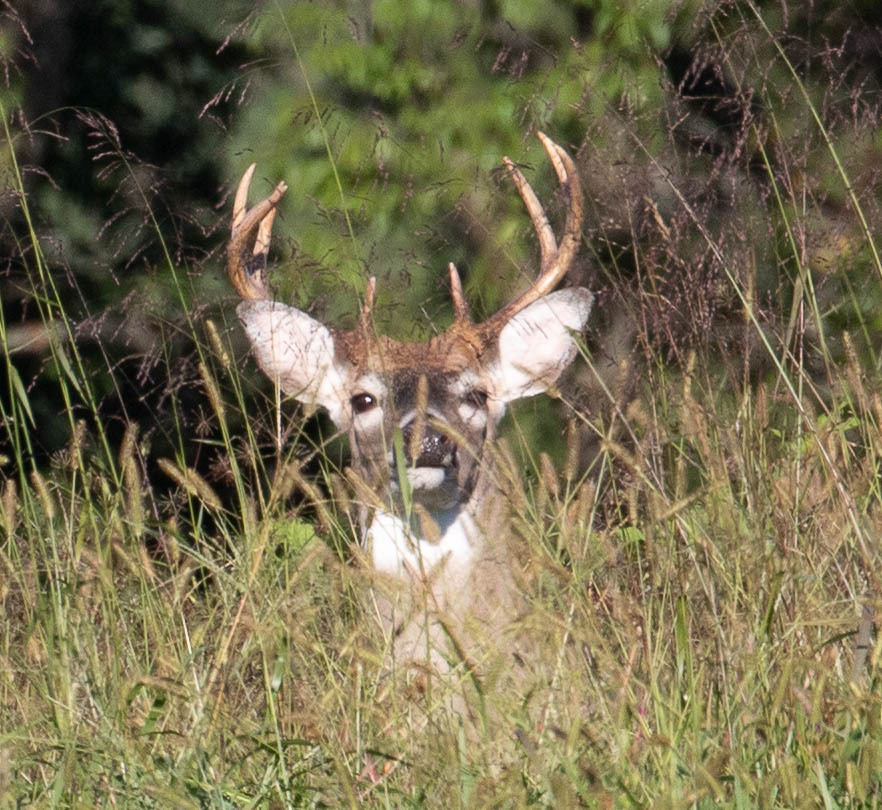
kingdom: Animalia
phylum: Chordata
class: Mammalia
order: Artiodactyla
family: Cervidae
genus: Odocoileus
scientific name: Odocoileus virginianus
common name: White-tailed deer
